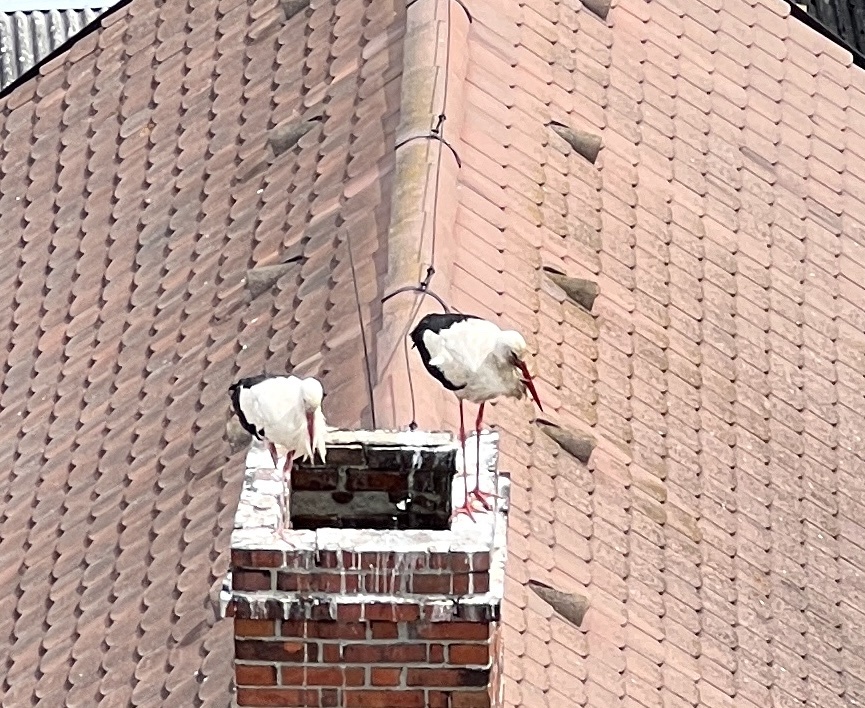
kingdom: Animalia
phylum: Chordata
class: Aves
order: Ciconiiformes
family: Ciconiidae
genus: Ciconia
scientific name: Ciconia ciconia
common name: White stork
